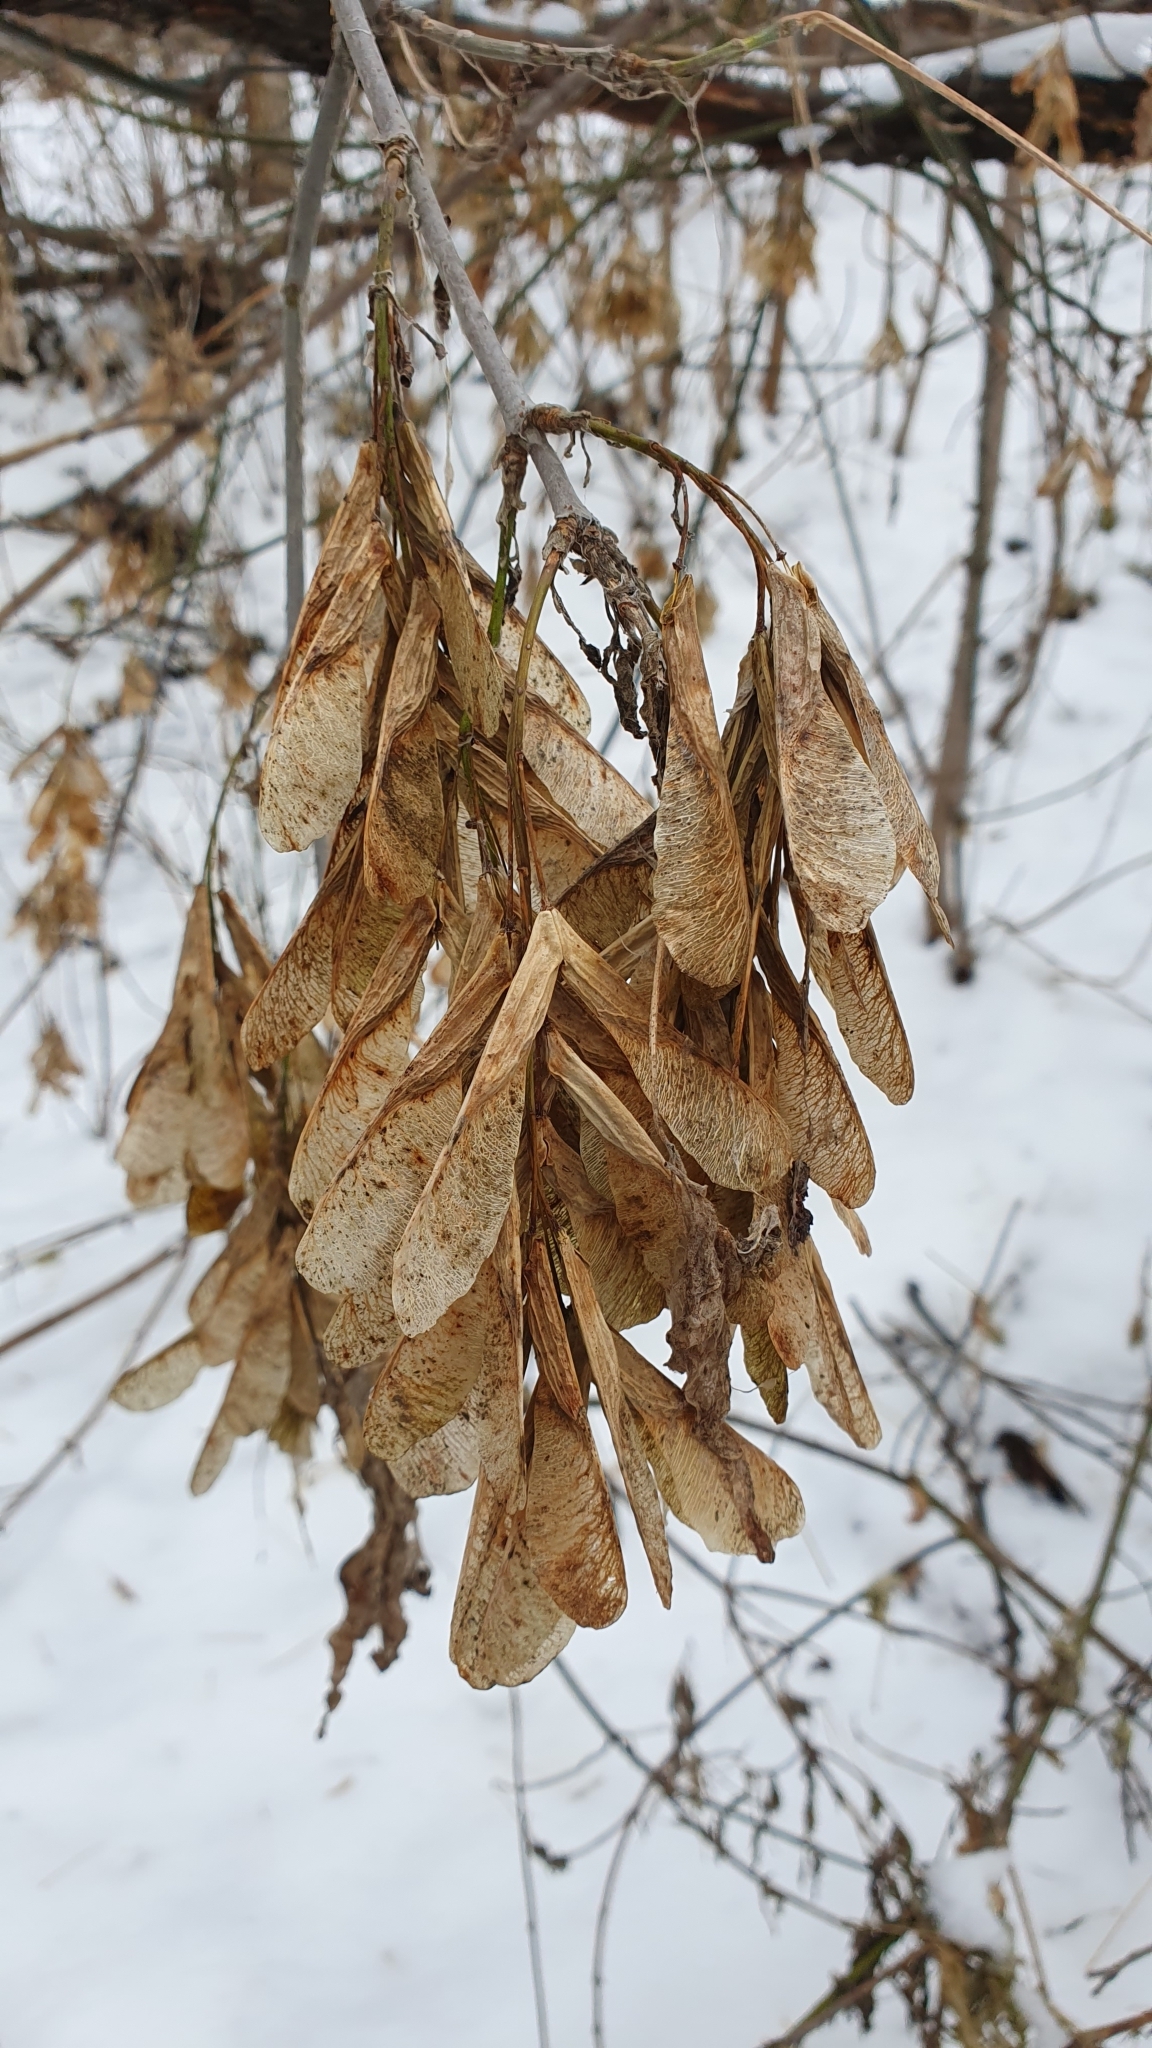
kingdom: Plantae
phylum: Tracheophyta
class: Magnoliopsida
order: Sapindales
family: Sapindaceae
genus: Acer
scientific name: Acer negundo
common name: Ashleaf maple
